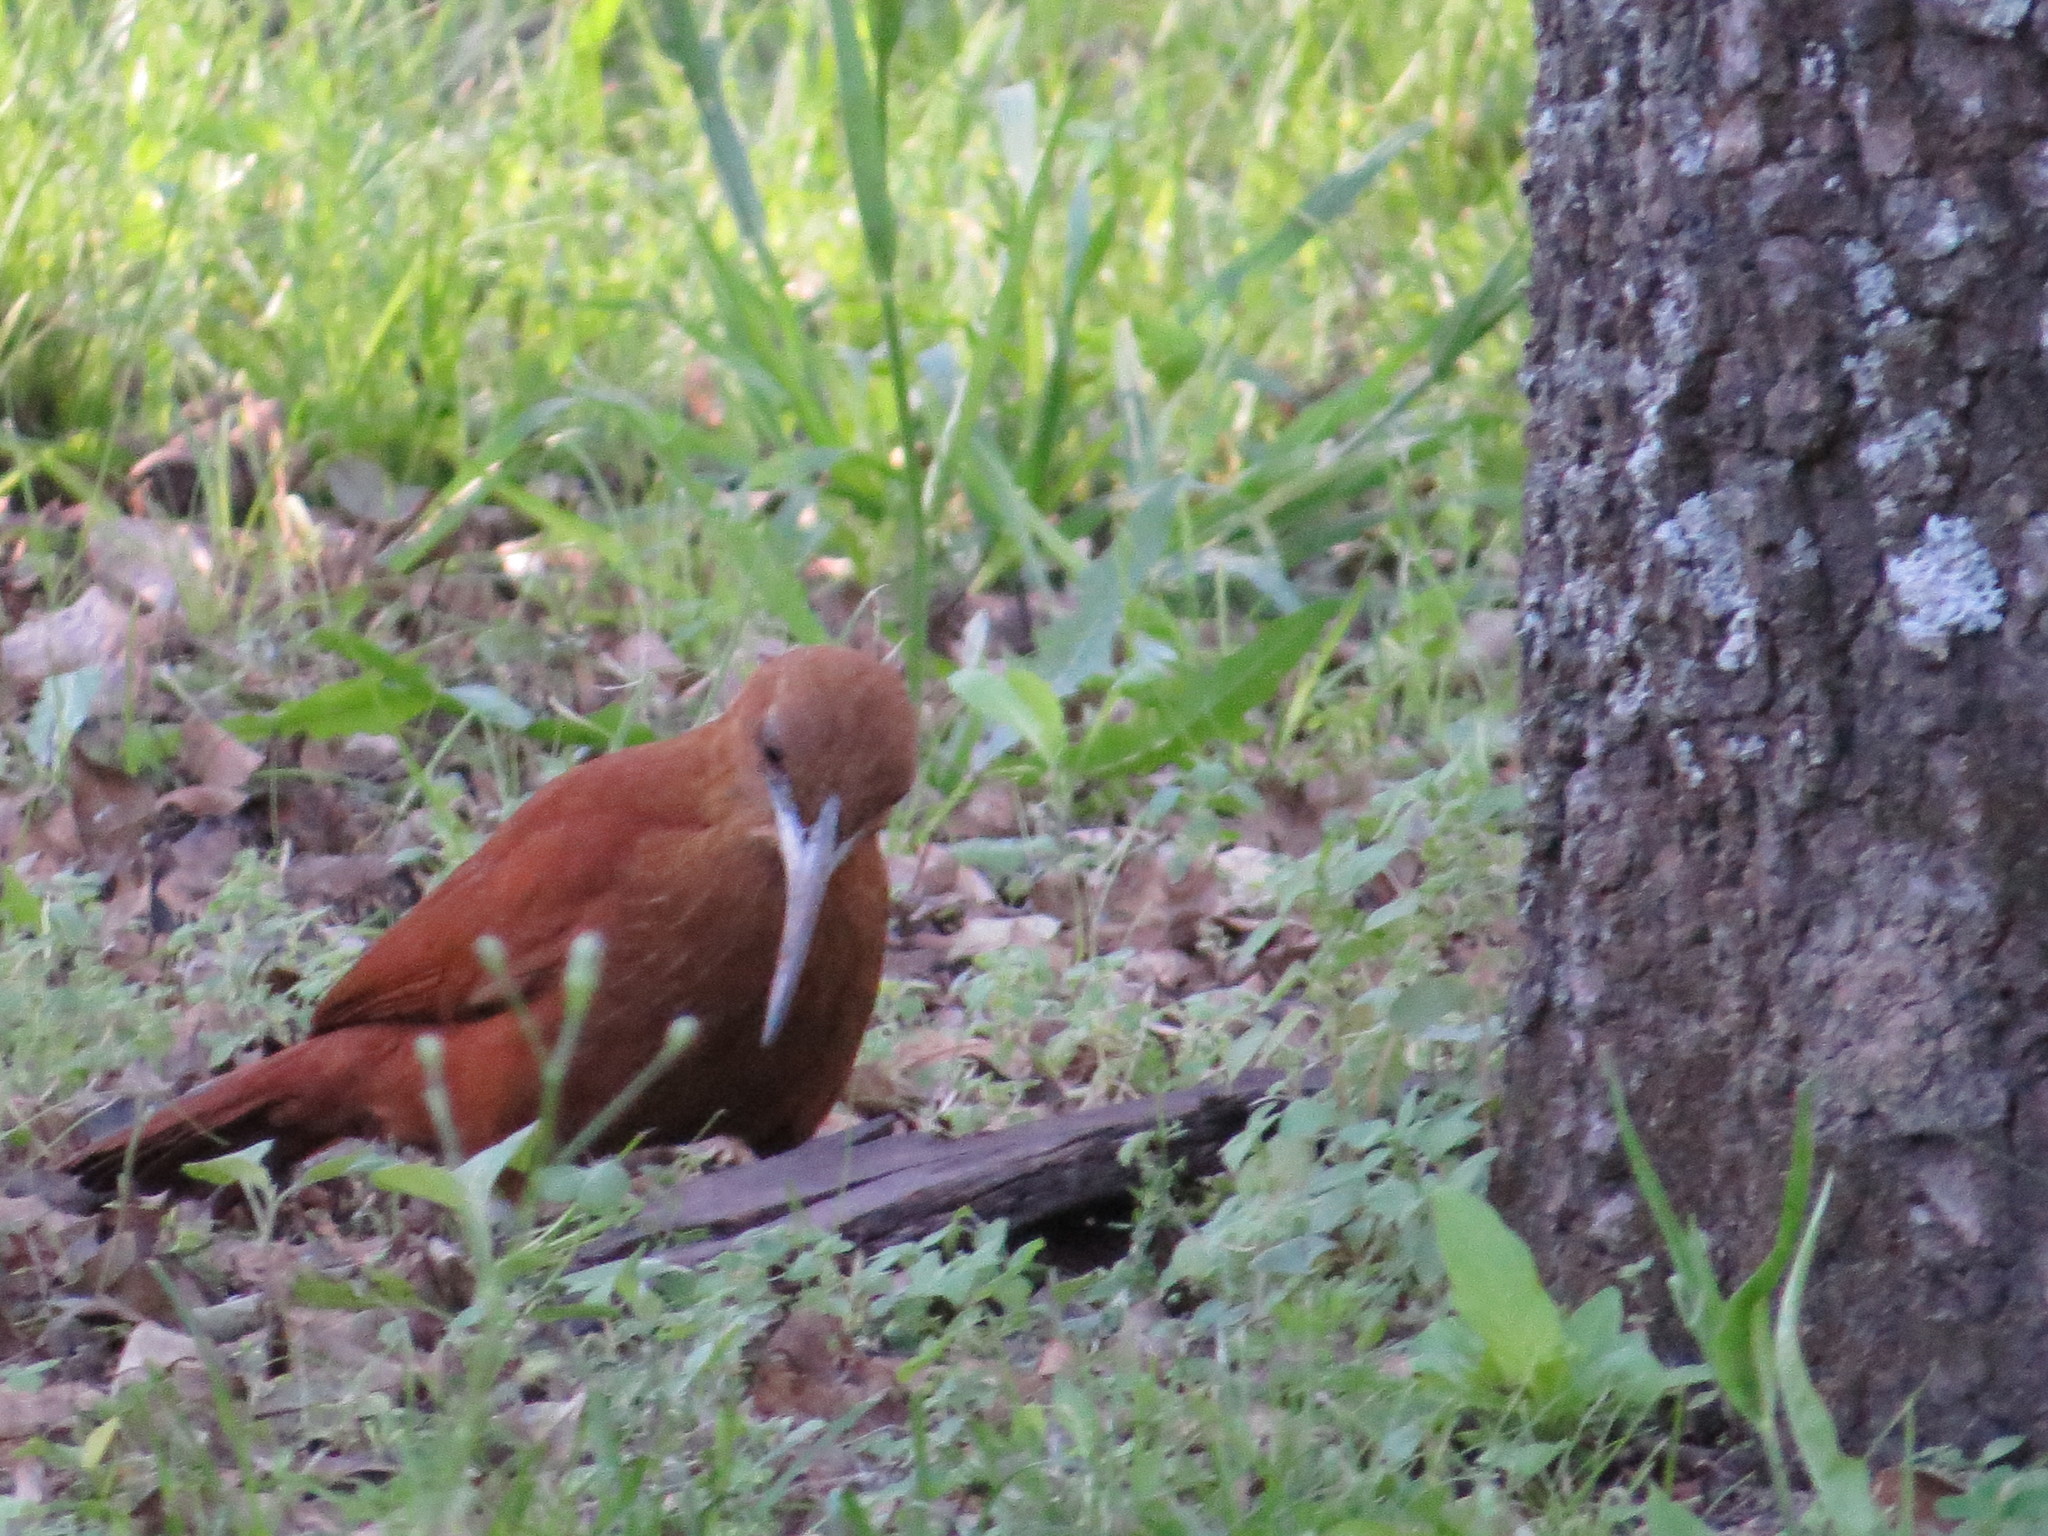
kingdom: Animalia
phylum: Chordata
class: Aves
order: Passeriformes
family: Furnariidae
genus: Xiphocolaptes
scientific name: Xiphocolaptes major
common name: Great rufous woodcreeper
